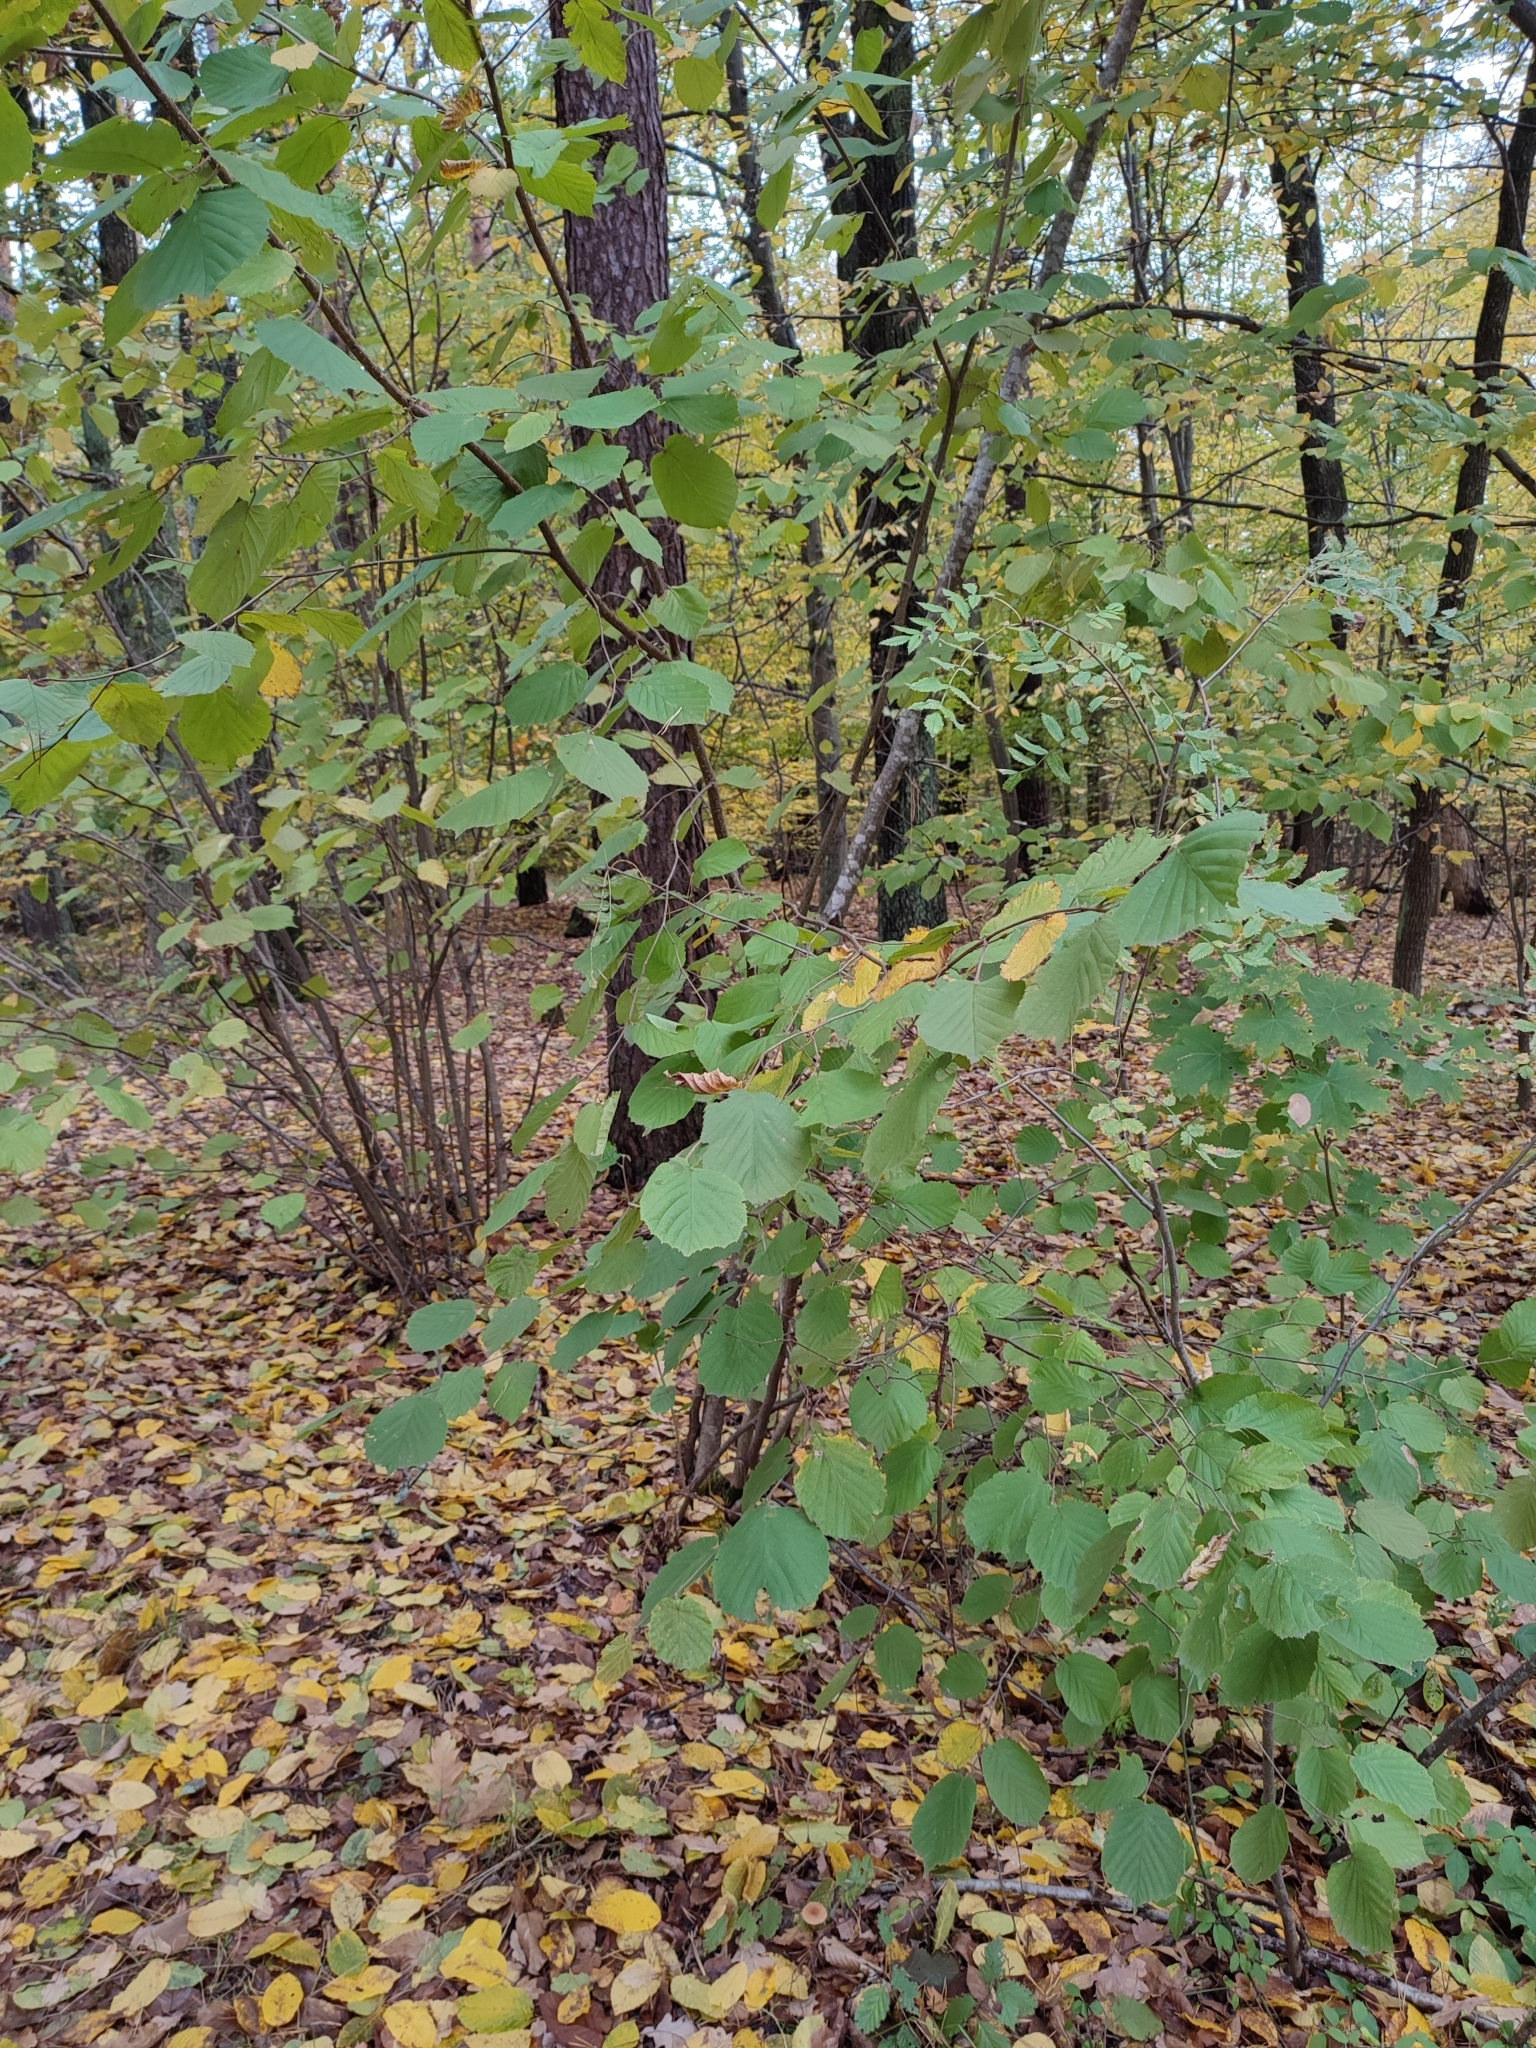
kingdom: Plantae
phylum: Tracheophyta
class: Magnoliopsida
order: Fagales
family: Betulaceae
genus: Corylus
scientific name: Corylus avellana
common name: European hazel
